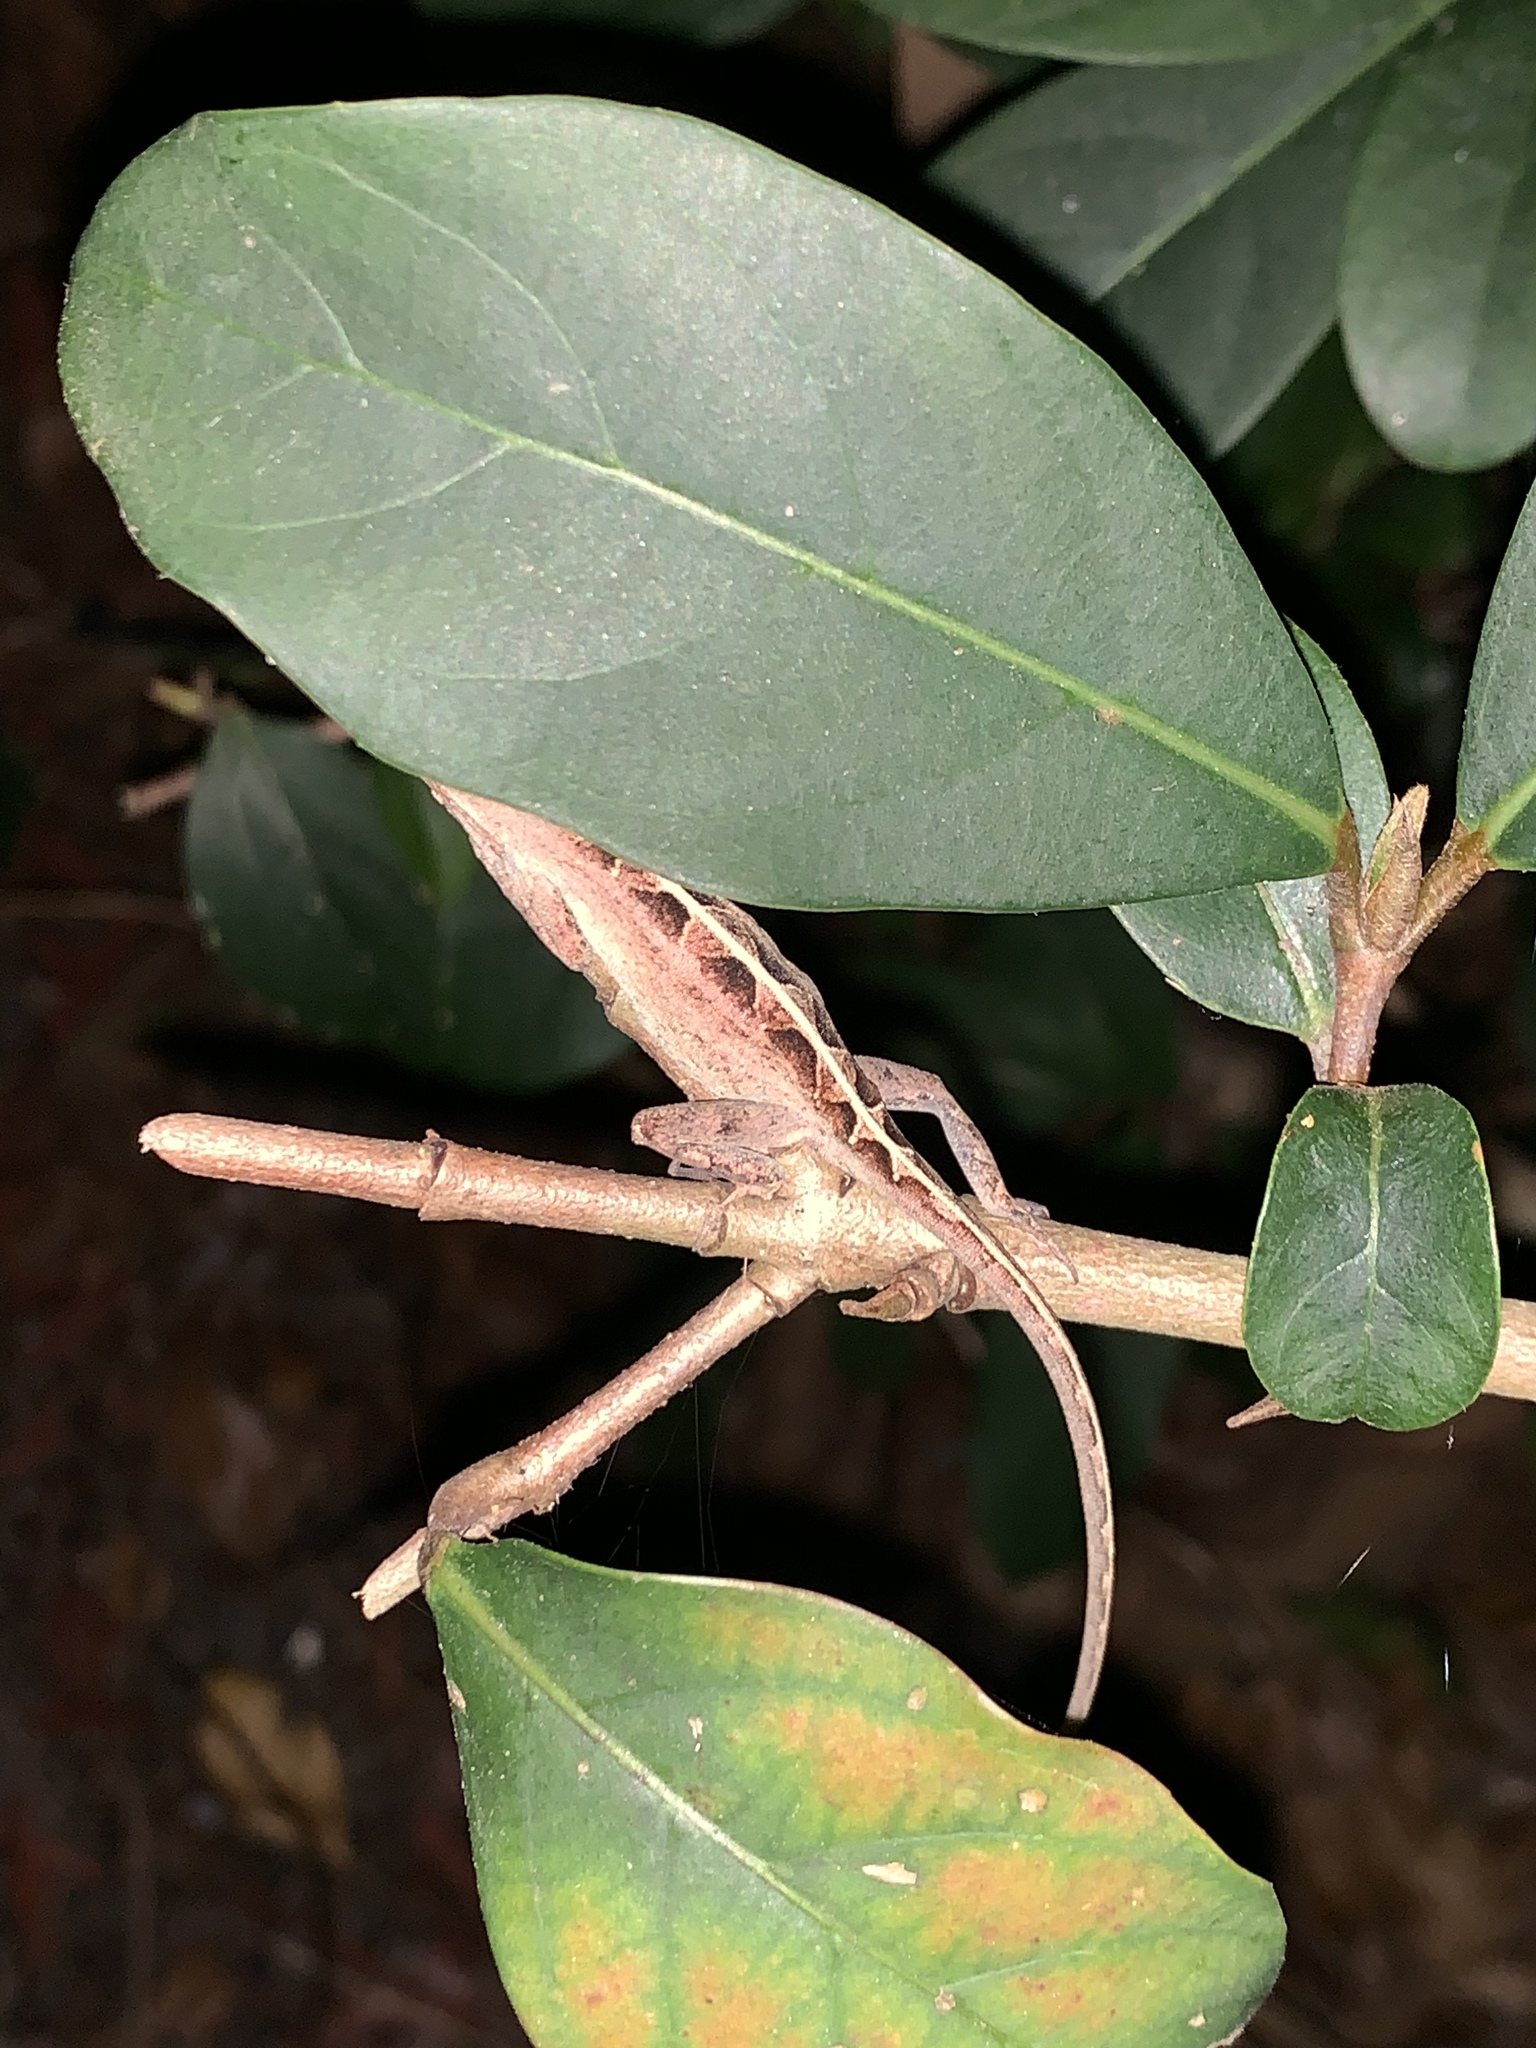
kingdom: Animalia
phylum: Chordata
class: Squamata
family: Dactyloidae
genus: Anolis
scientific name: Anolis sagrei
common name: Brown anole
